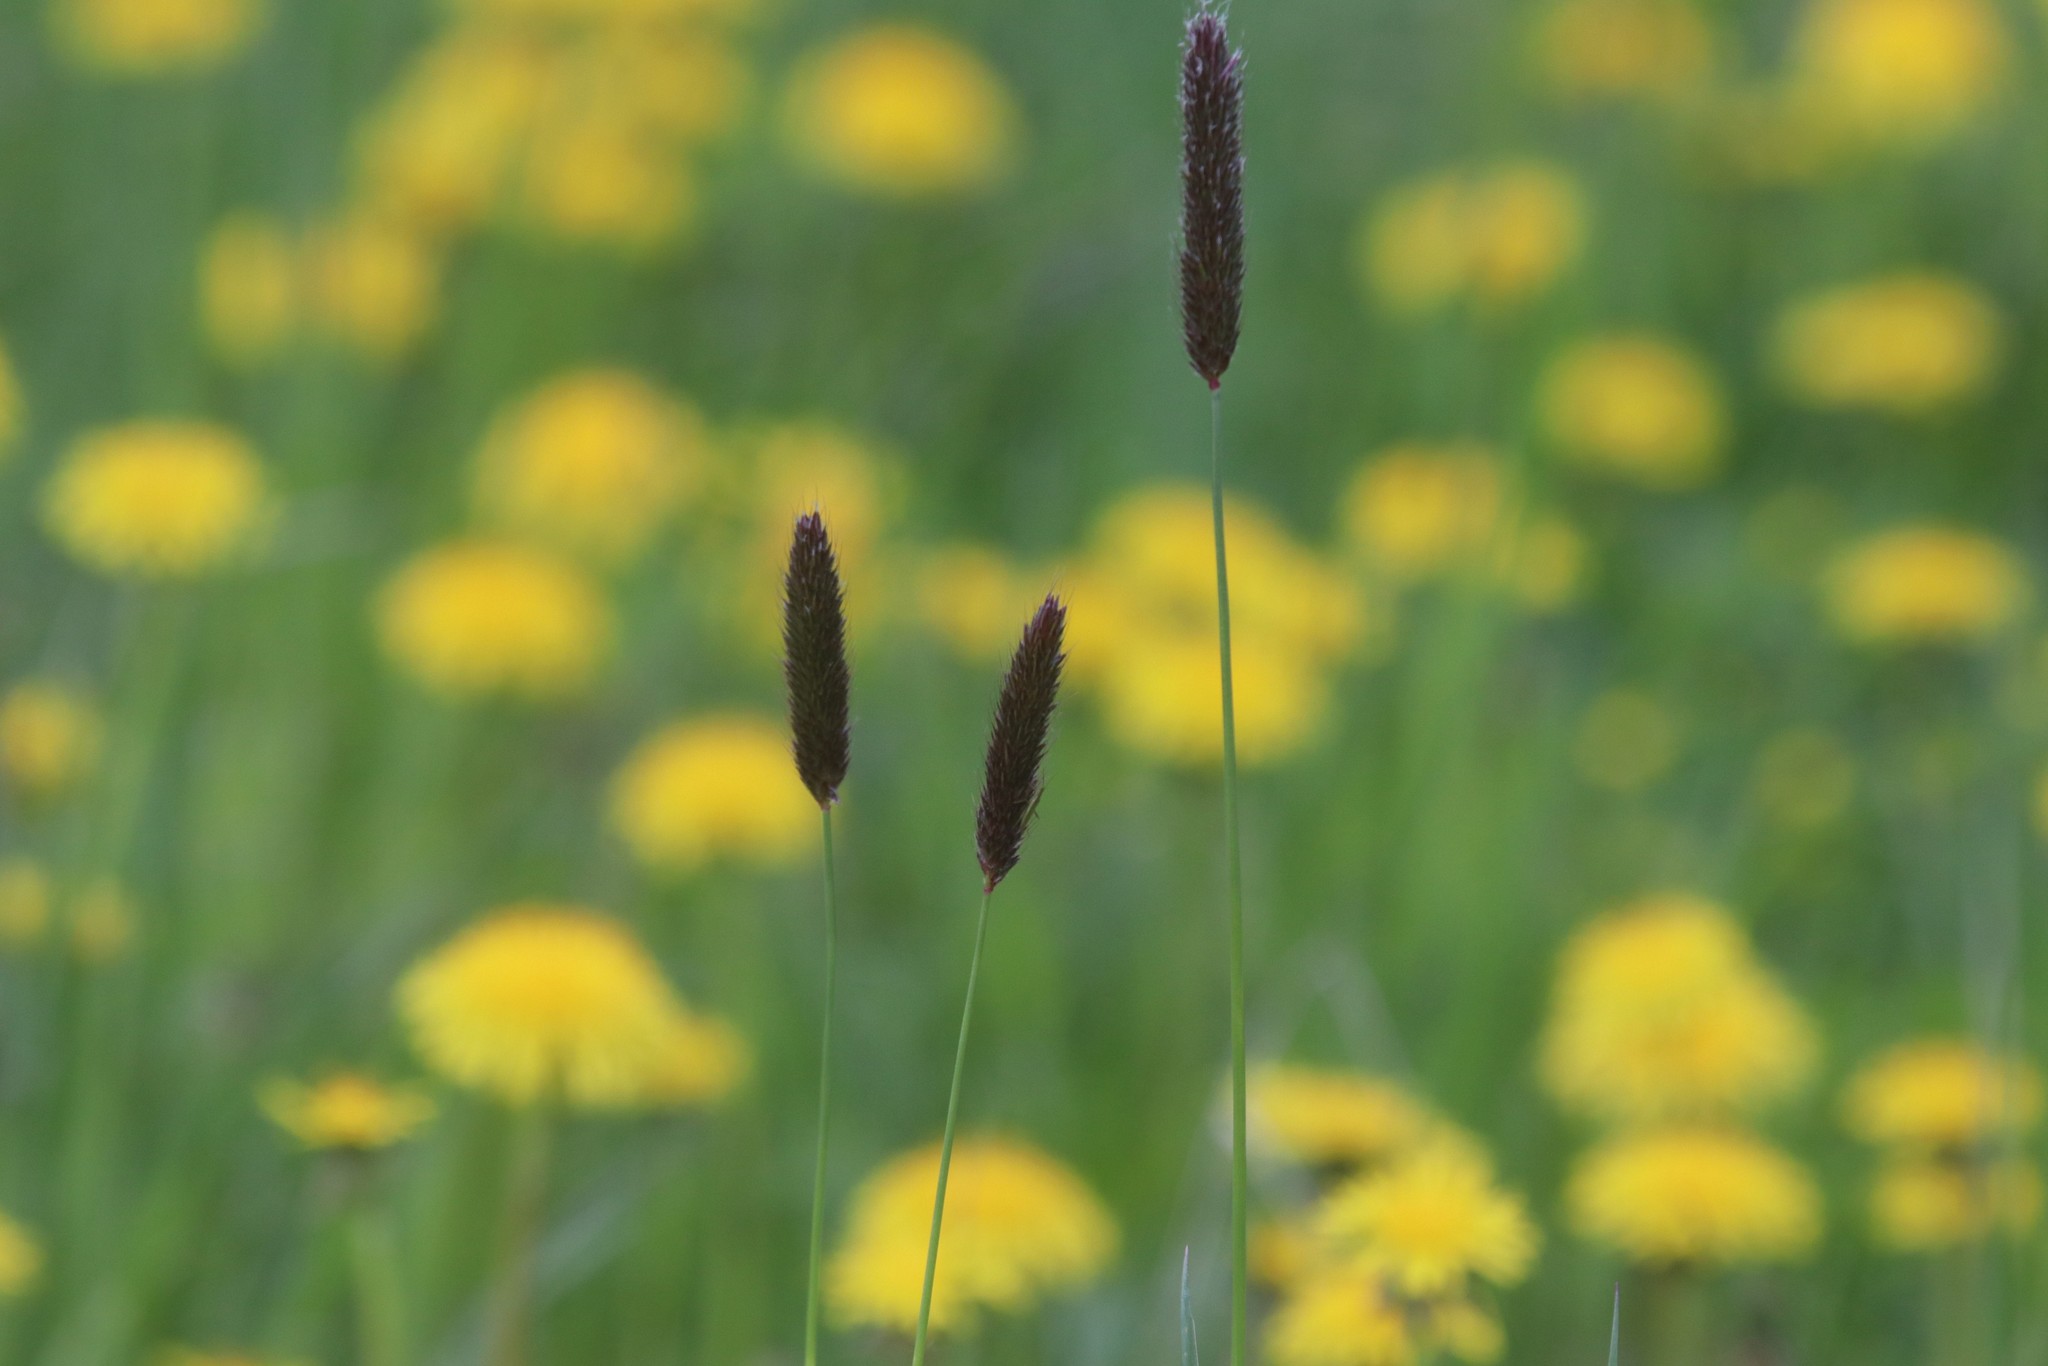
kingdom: Plantae
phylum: Tracheophyta
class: Liliopsida
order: Poales
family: Poaceae
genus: Alopecurus
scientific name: Alopecurus pratensis
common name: Meadow foxtail
